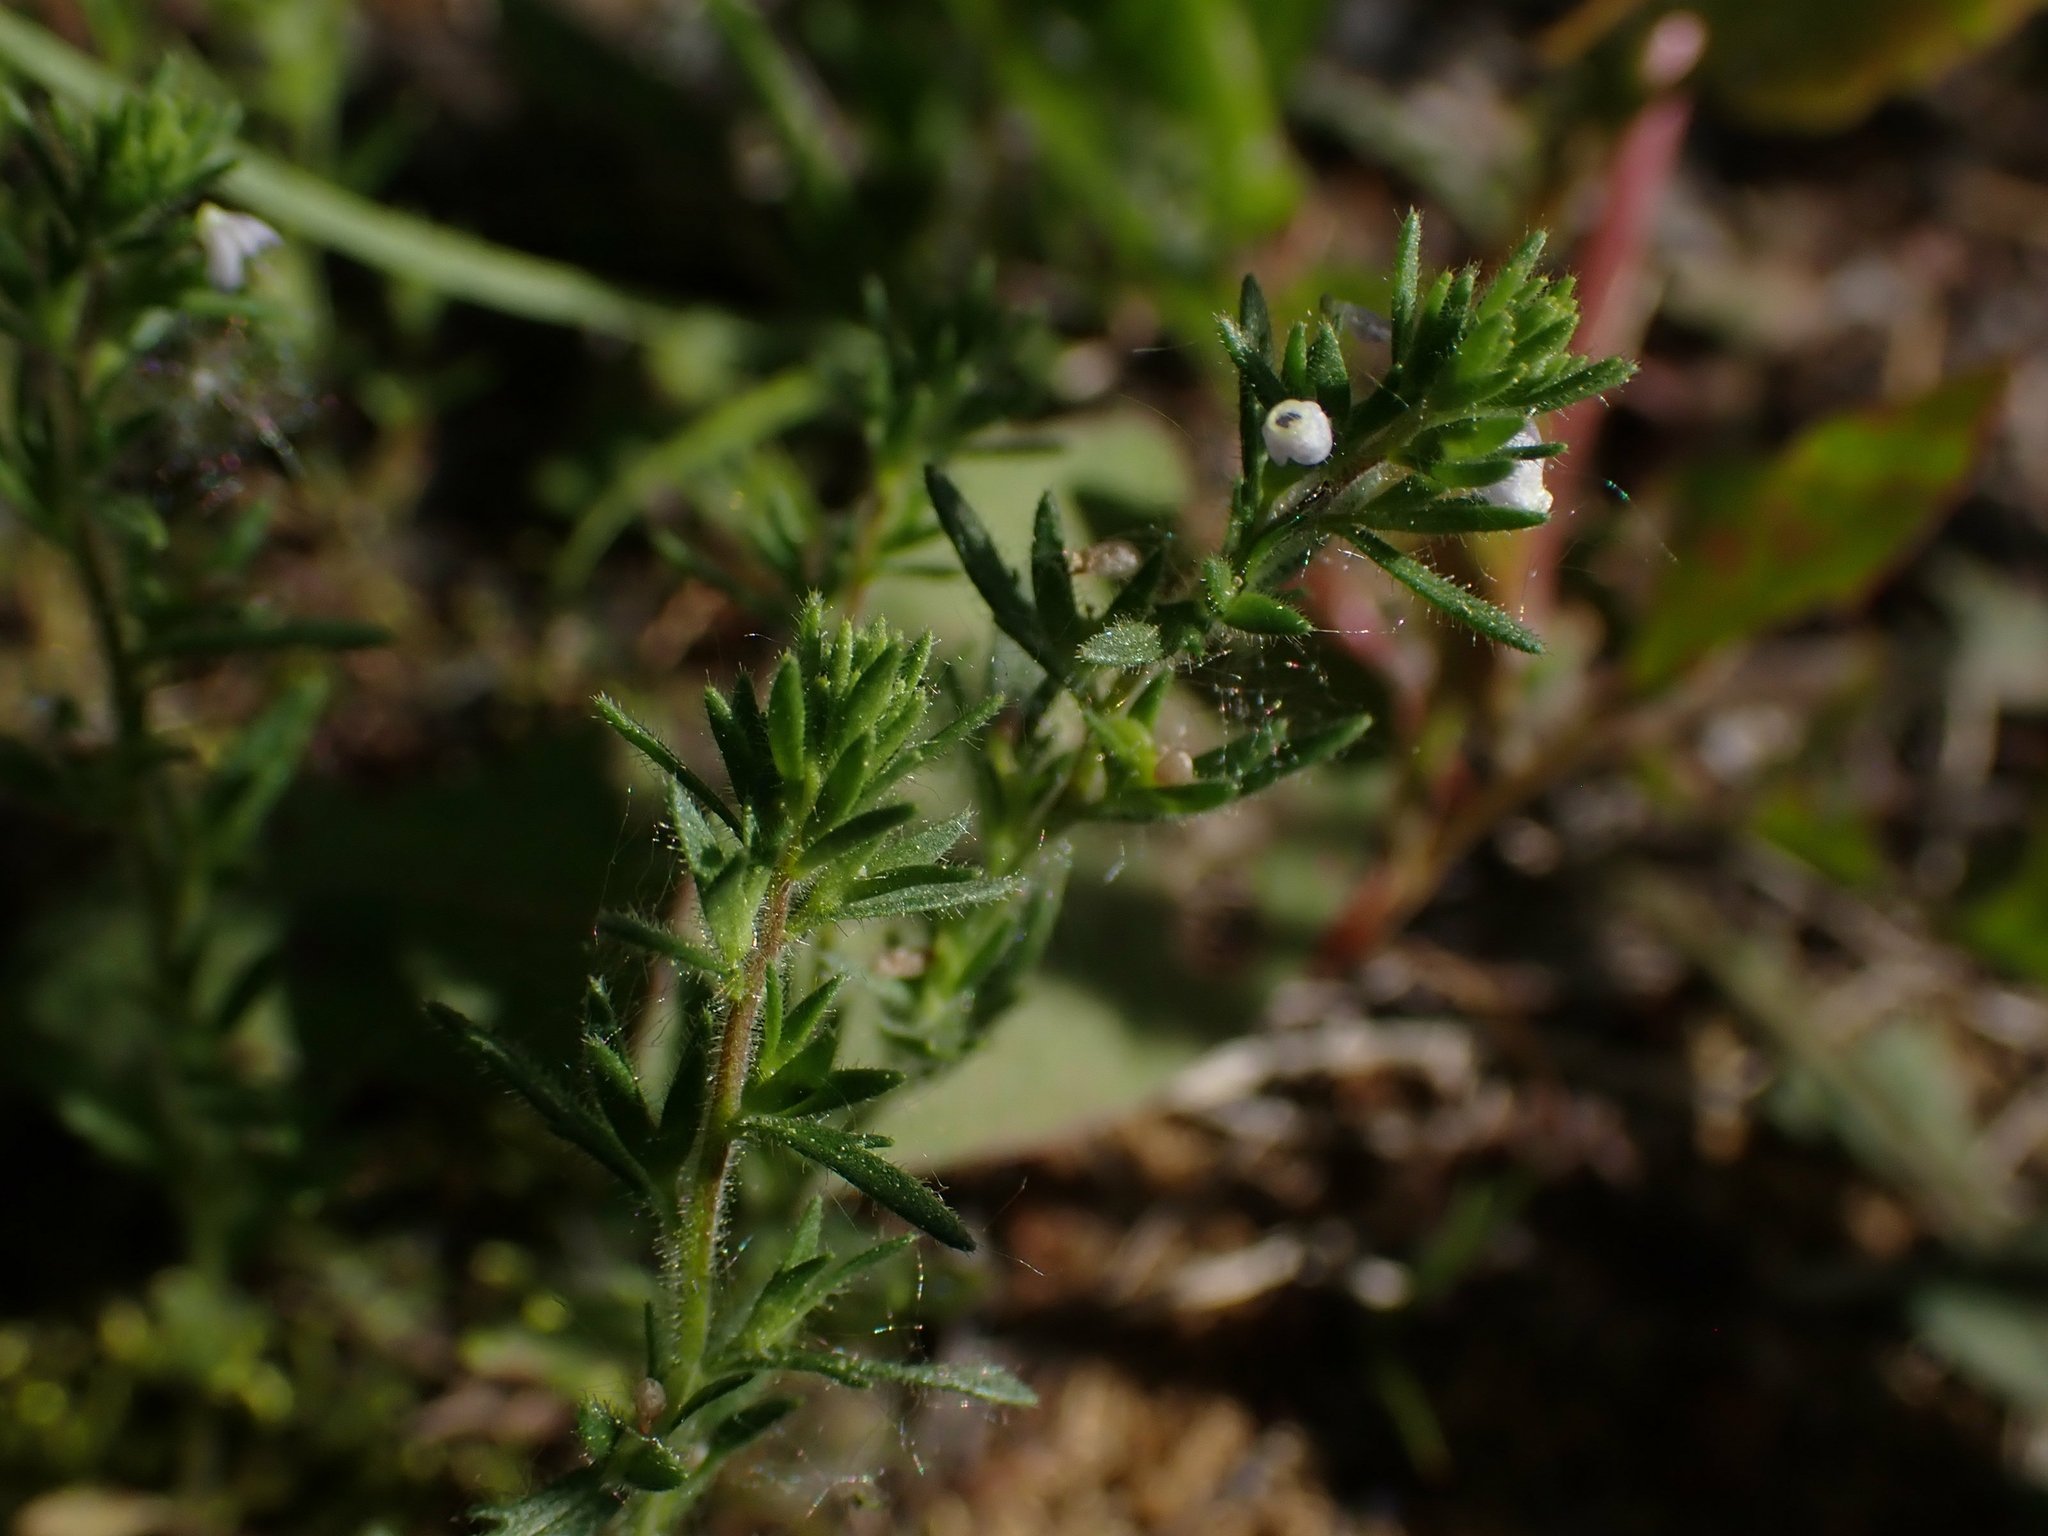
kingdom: Plantae
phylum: Tracheophyta
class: Magnoliopsida
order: Lamiales
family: Plantaginaceae
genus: Veronica
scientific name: Veronica verna
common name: Spring speedwell
